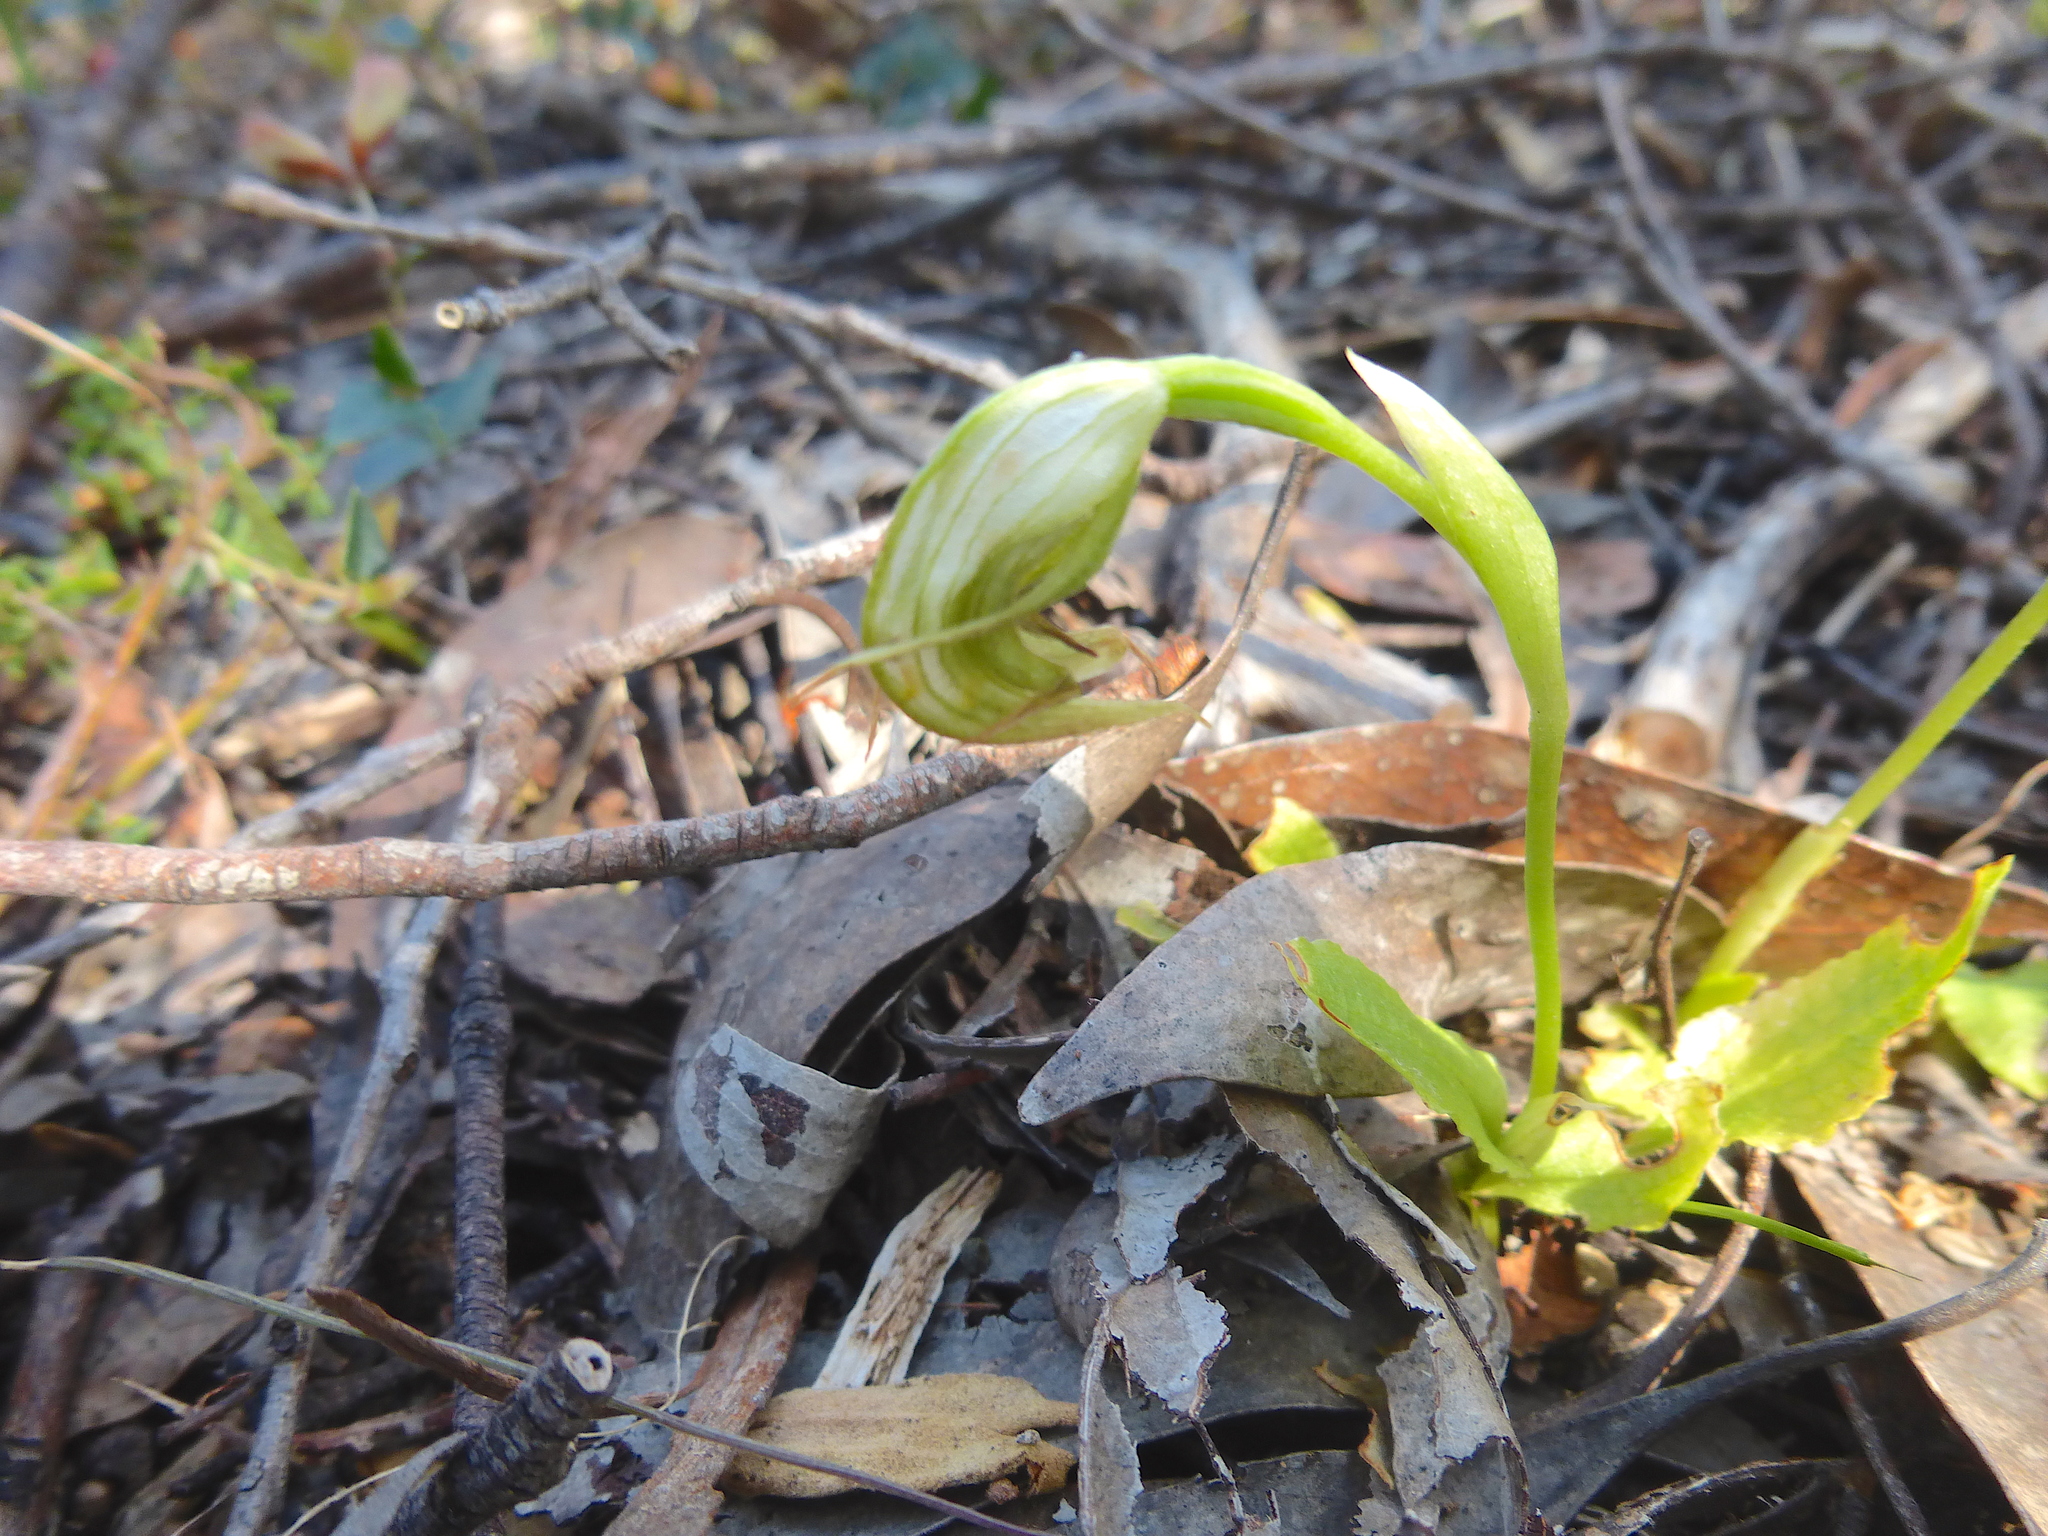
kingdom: Plantae
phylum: Tracheophyta
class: Liliopsida
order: Asparagales
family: Orchidaceae
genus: Pterostylis
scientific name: Pterostylis nutans
